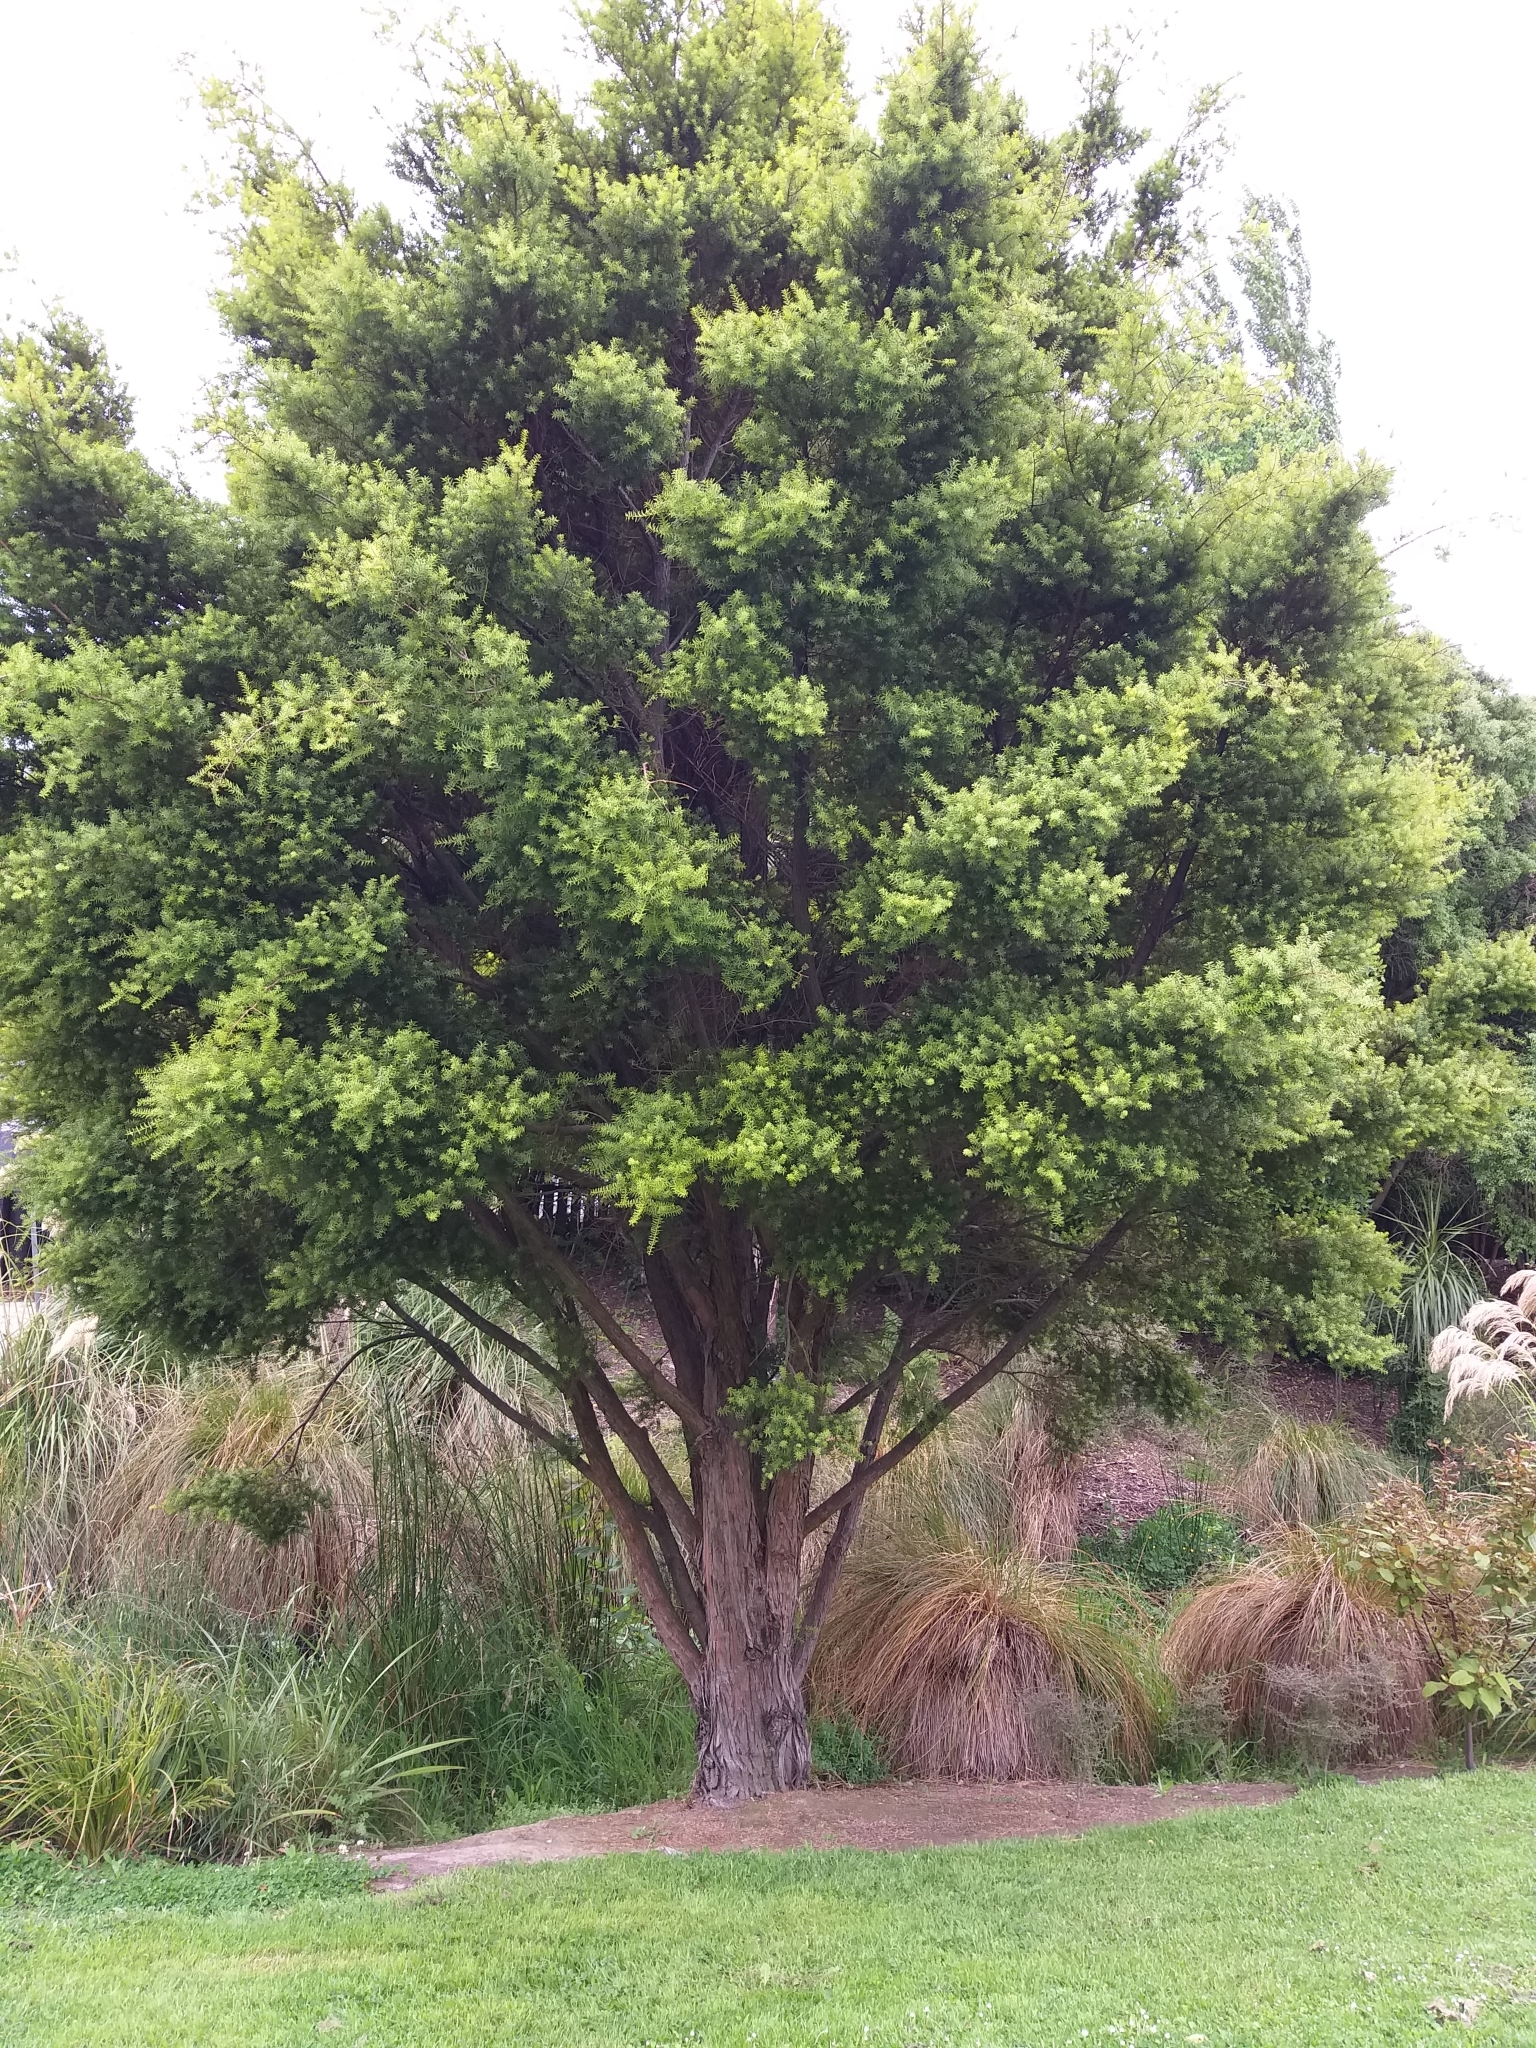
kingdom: Plantae
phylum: Tracheophyta
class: Pinopsida
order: Pinales
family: Podocarpaceae
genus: Podocarpus
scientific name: Podocarpus totara
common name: Totara
